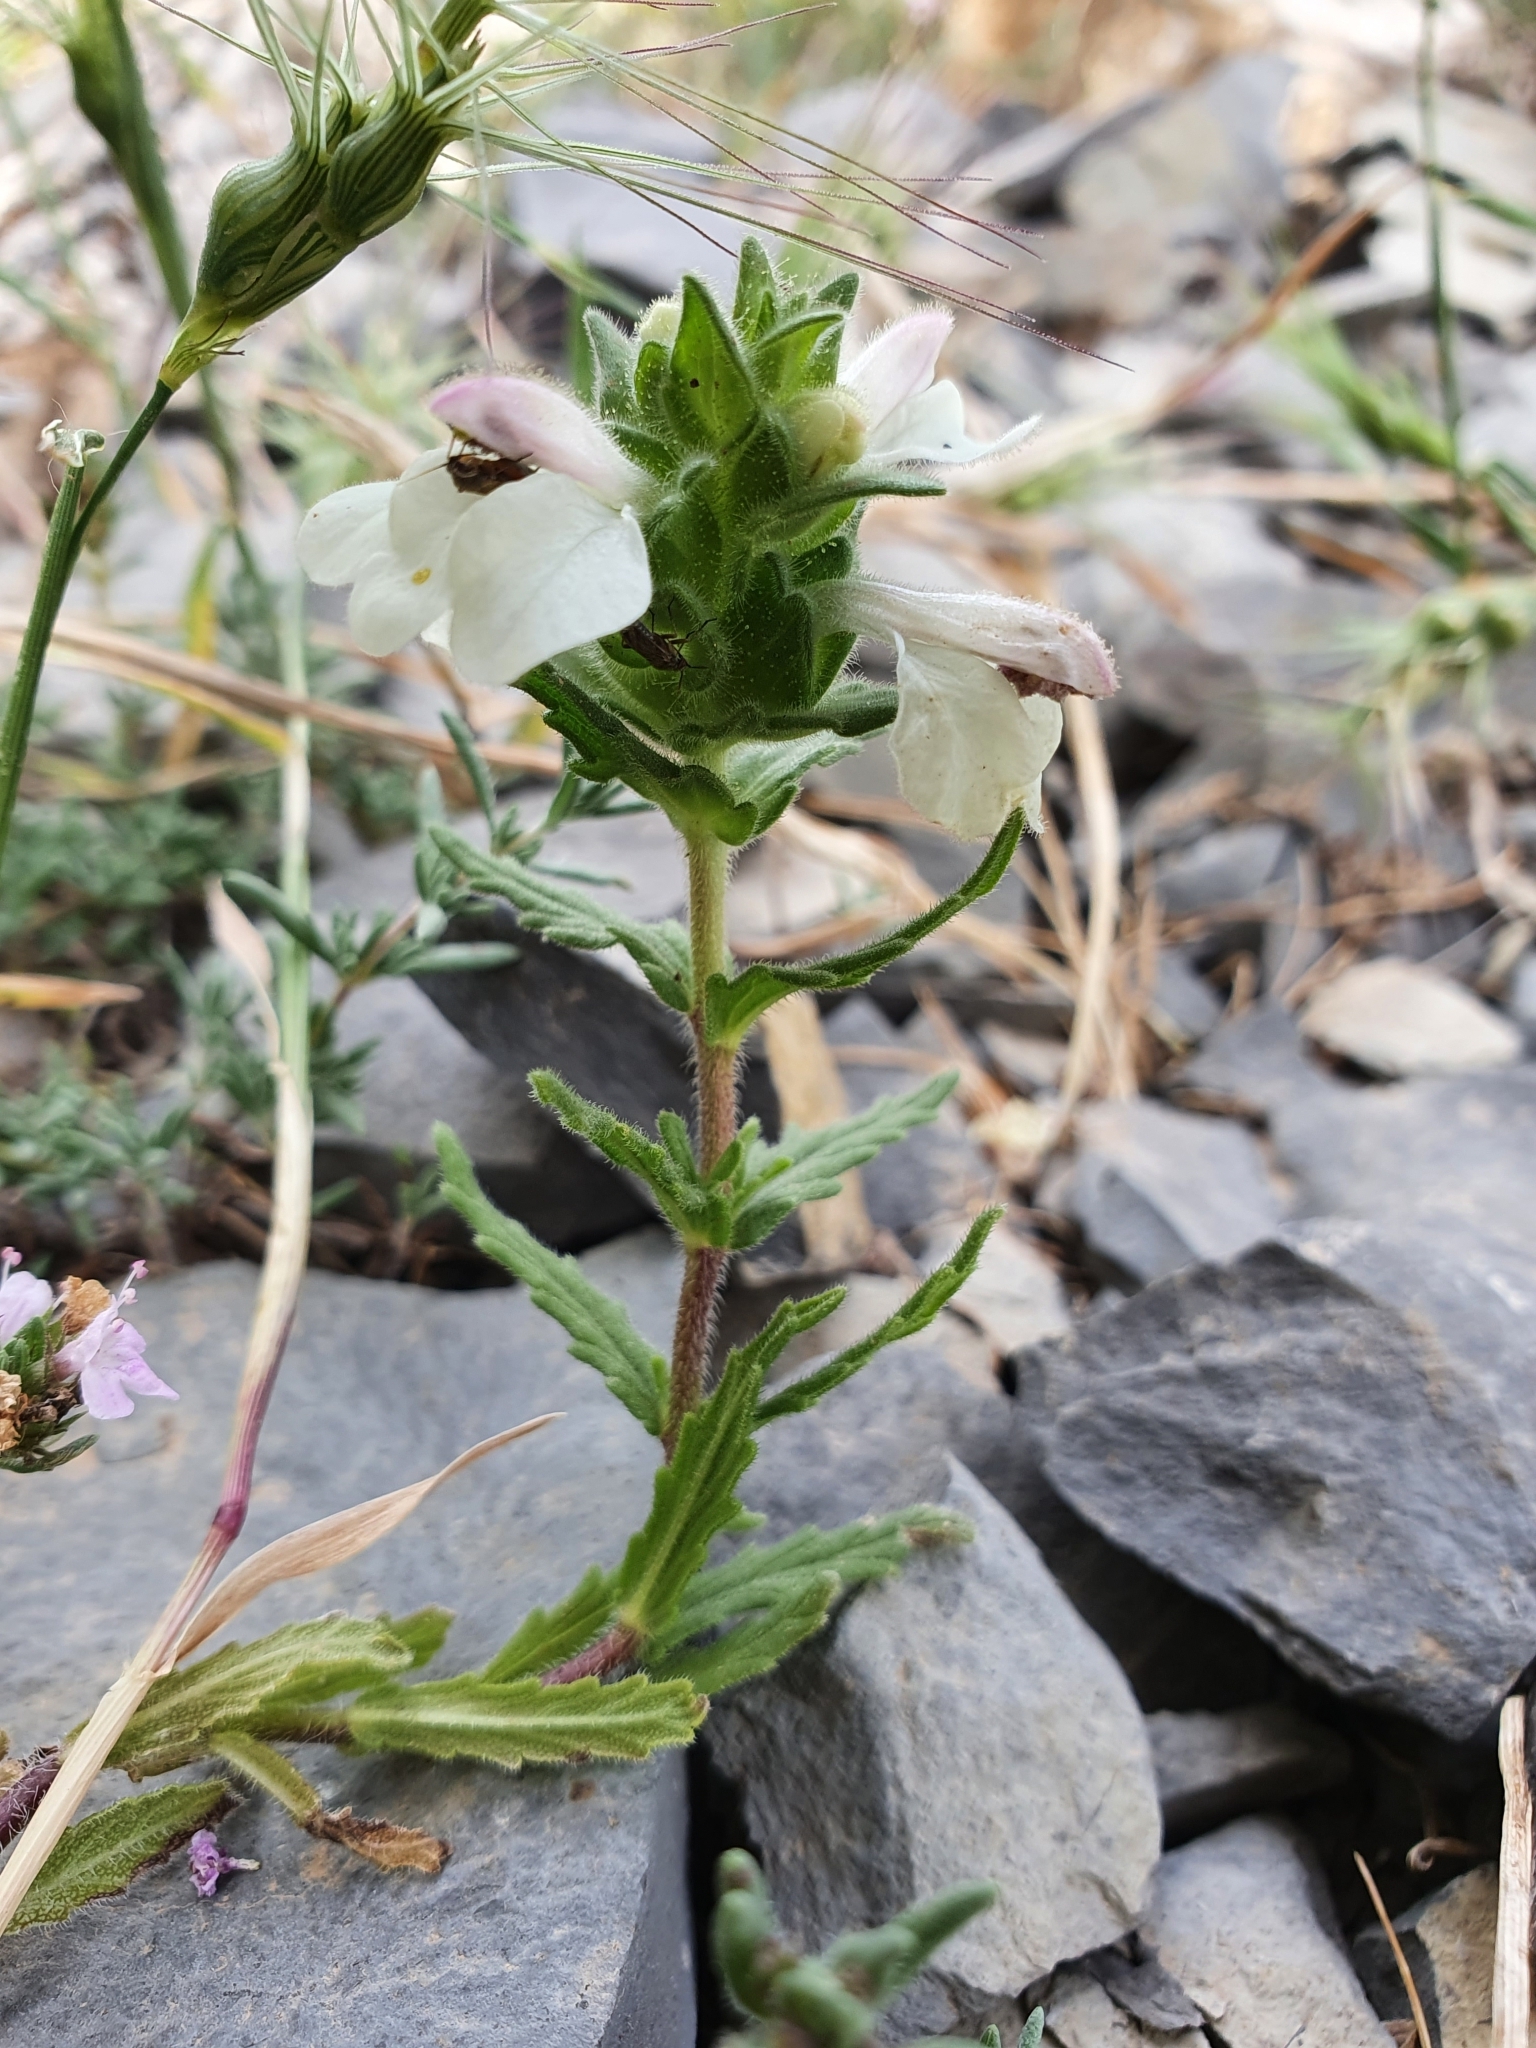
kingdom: Plantae
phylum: Tracheophyta
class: Magnoliopsida
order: Lamiales
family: Orobanchaceae
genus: Bellardia
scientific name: Bellardia trixago
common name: Mediterranean lineseed
